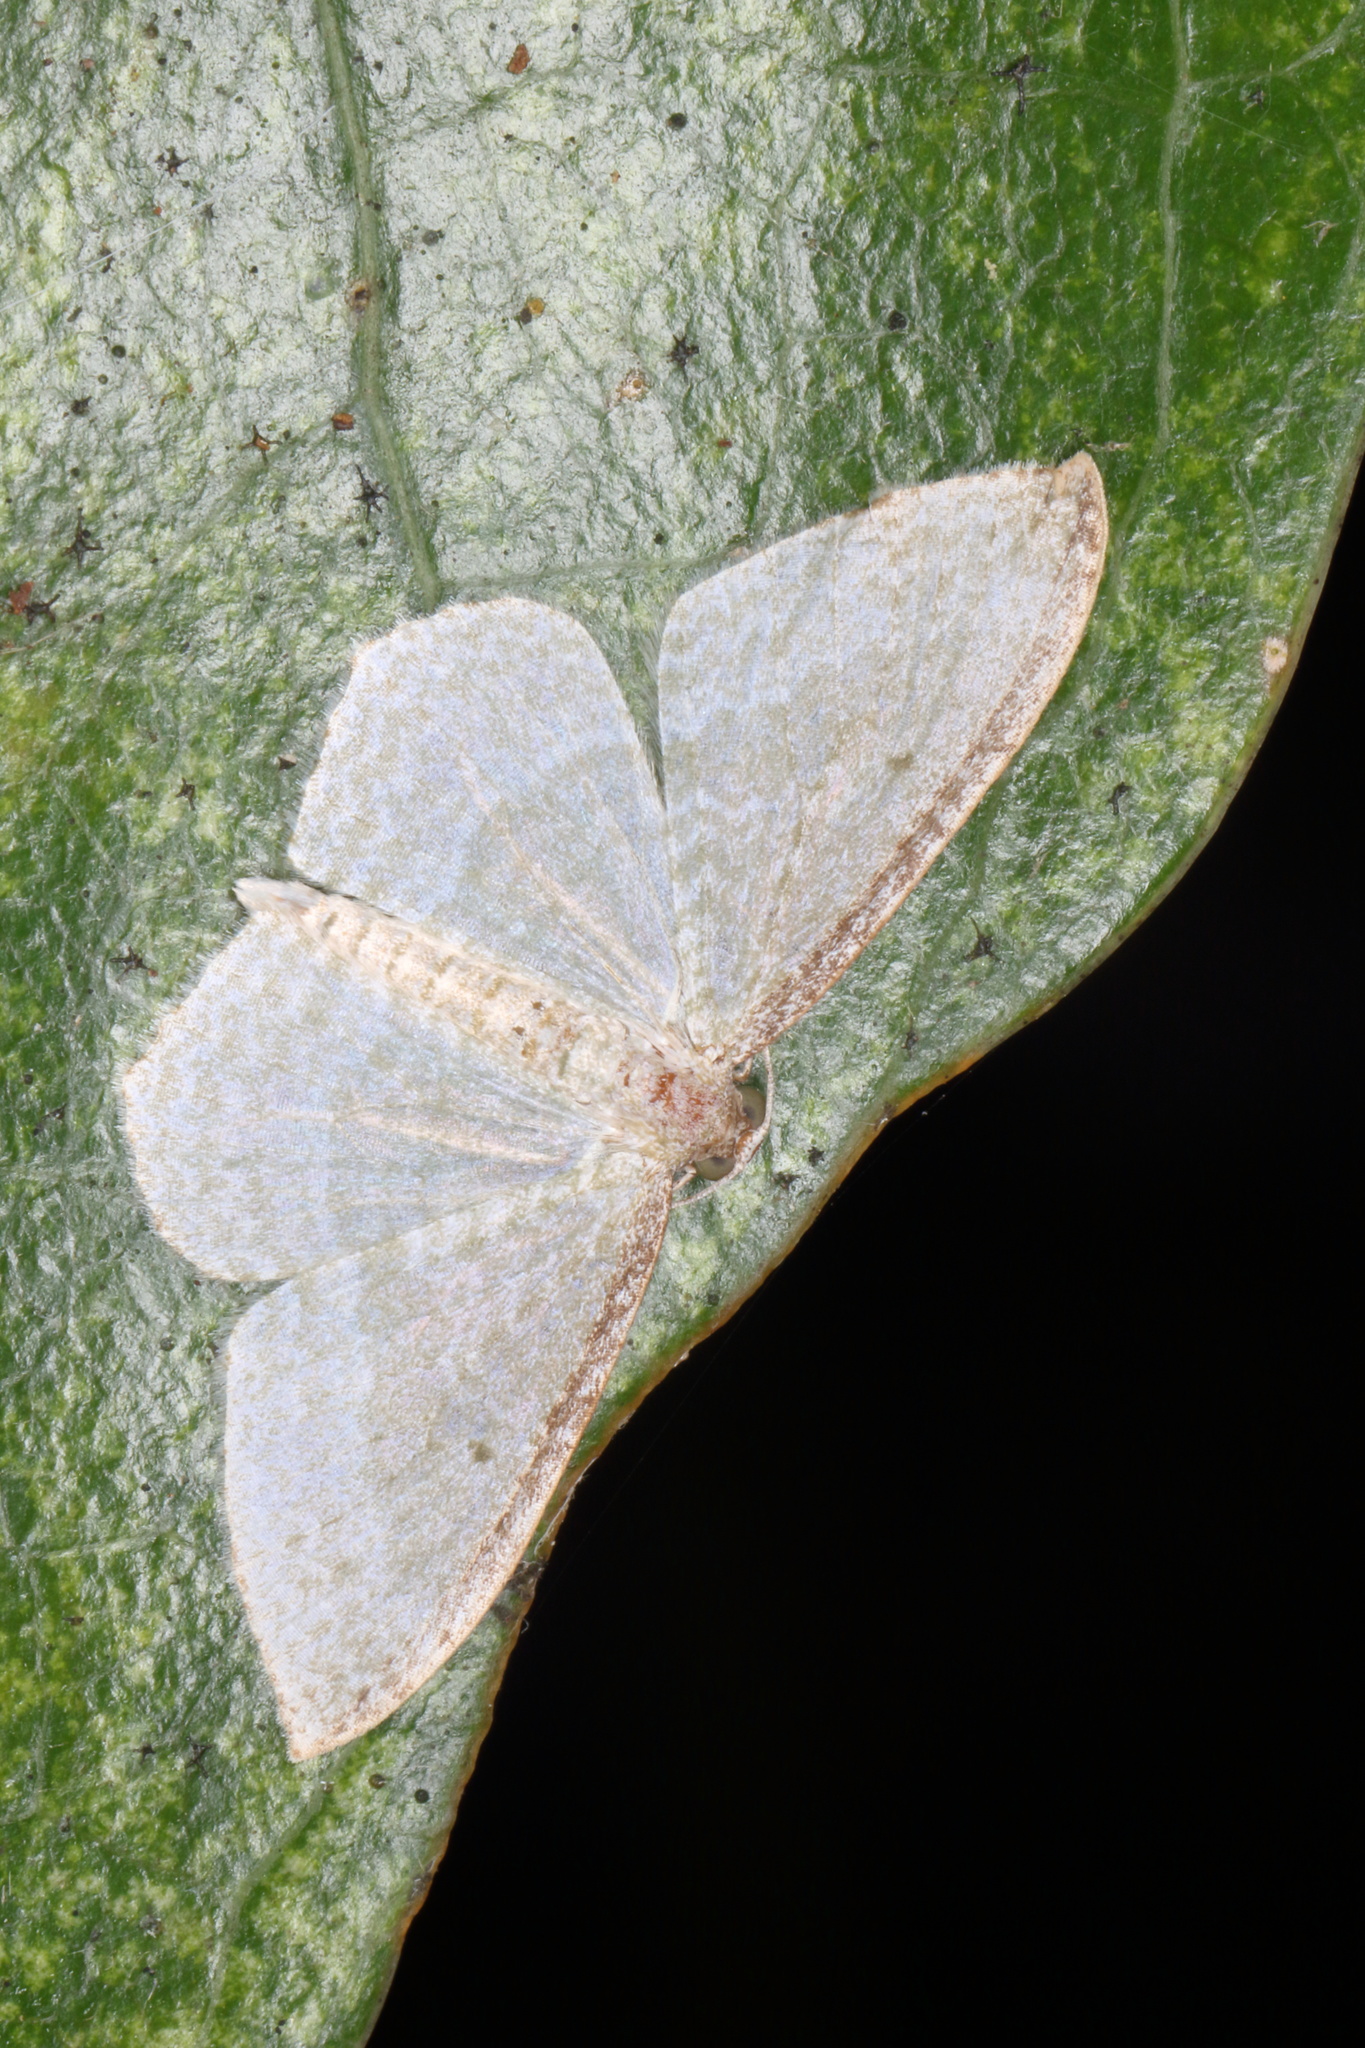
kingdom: Animalia
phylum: Arthropoda
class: Insecta
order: Lepidoptera
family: Geometridae
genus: Poecilasthena
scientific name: Poecilasthena pulchraria
